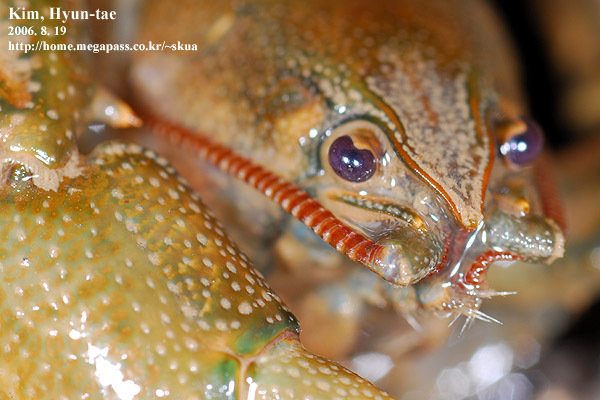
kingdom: Animalia
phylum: Arthropoda
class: Malacostraca
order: Decapoda
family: Cambaroididae
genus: Cambaroides
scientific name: Cambaroides similis
